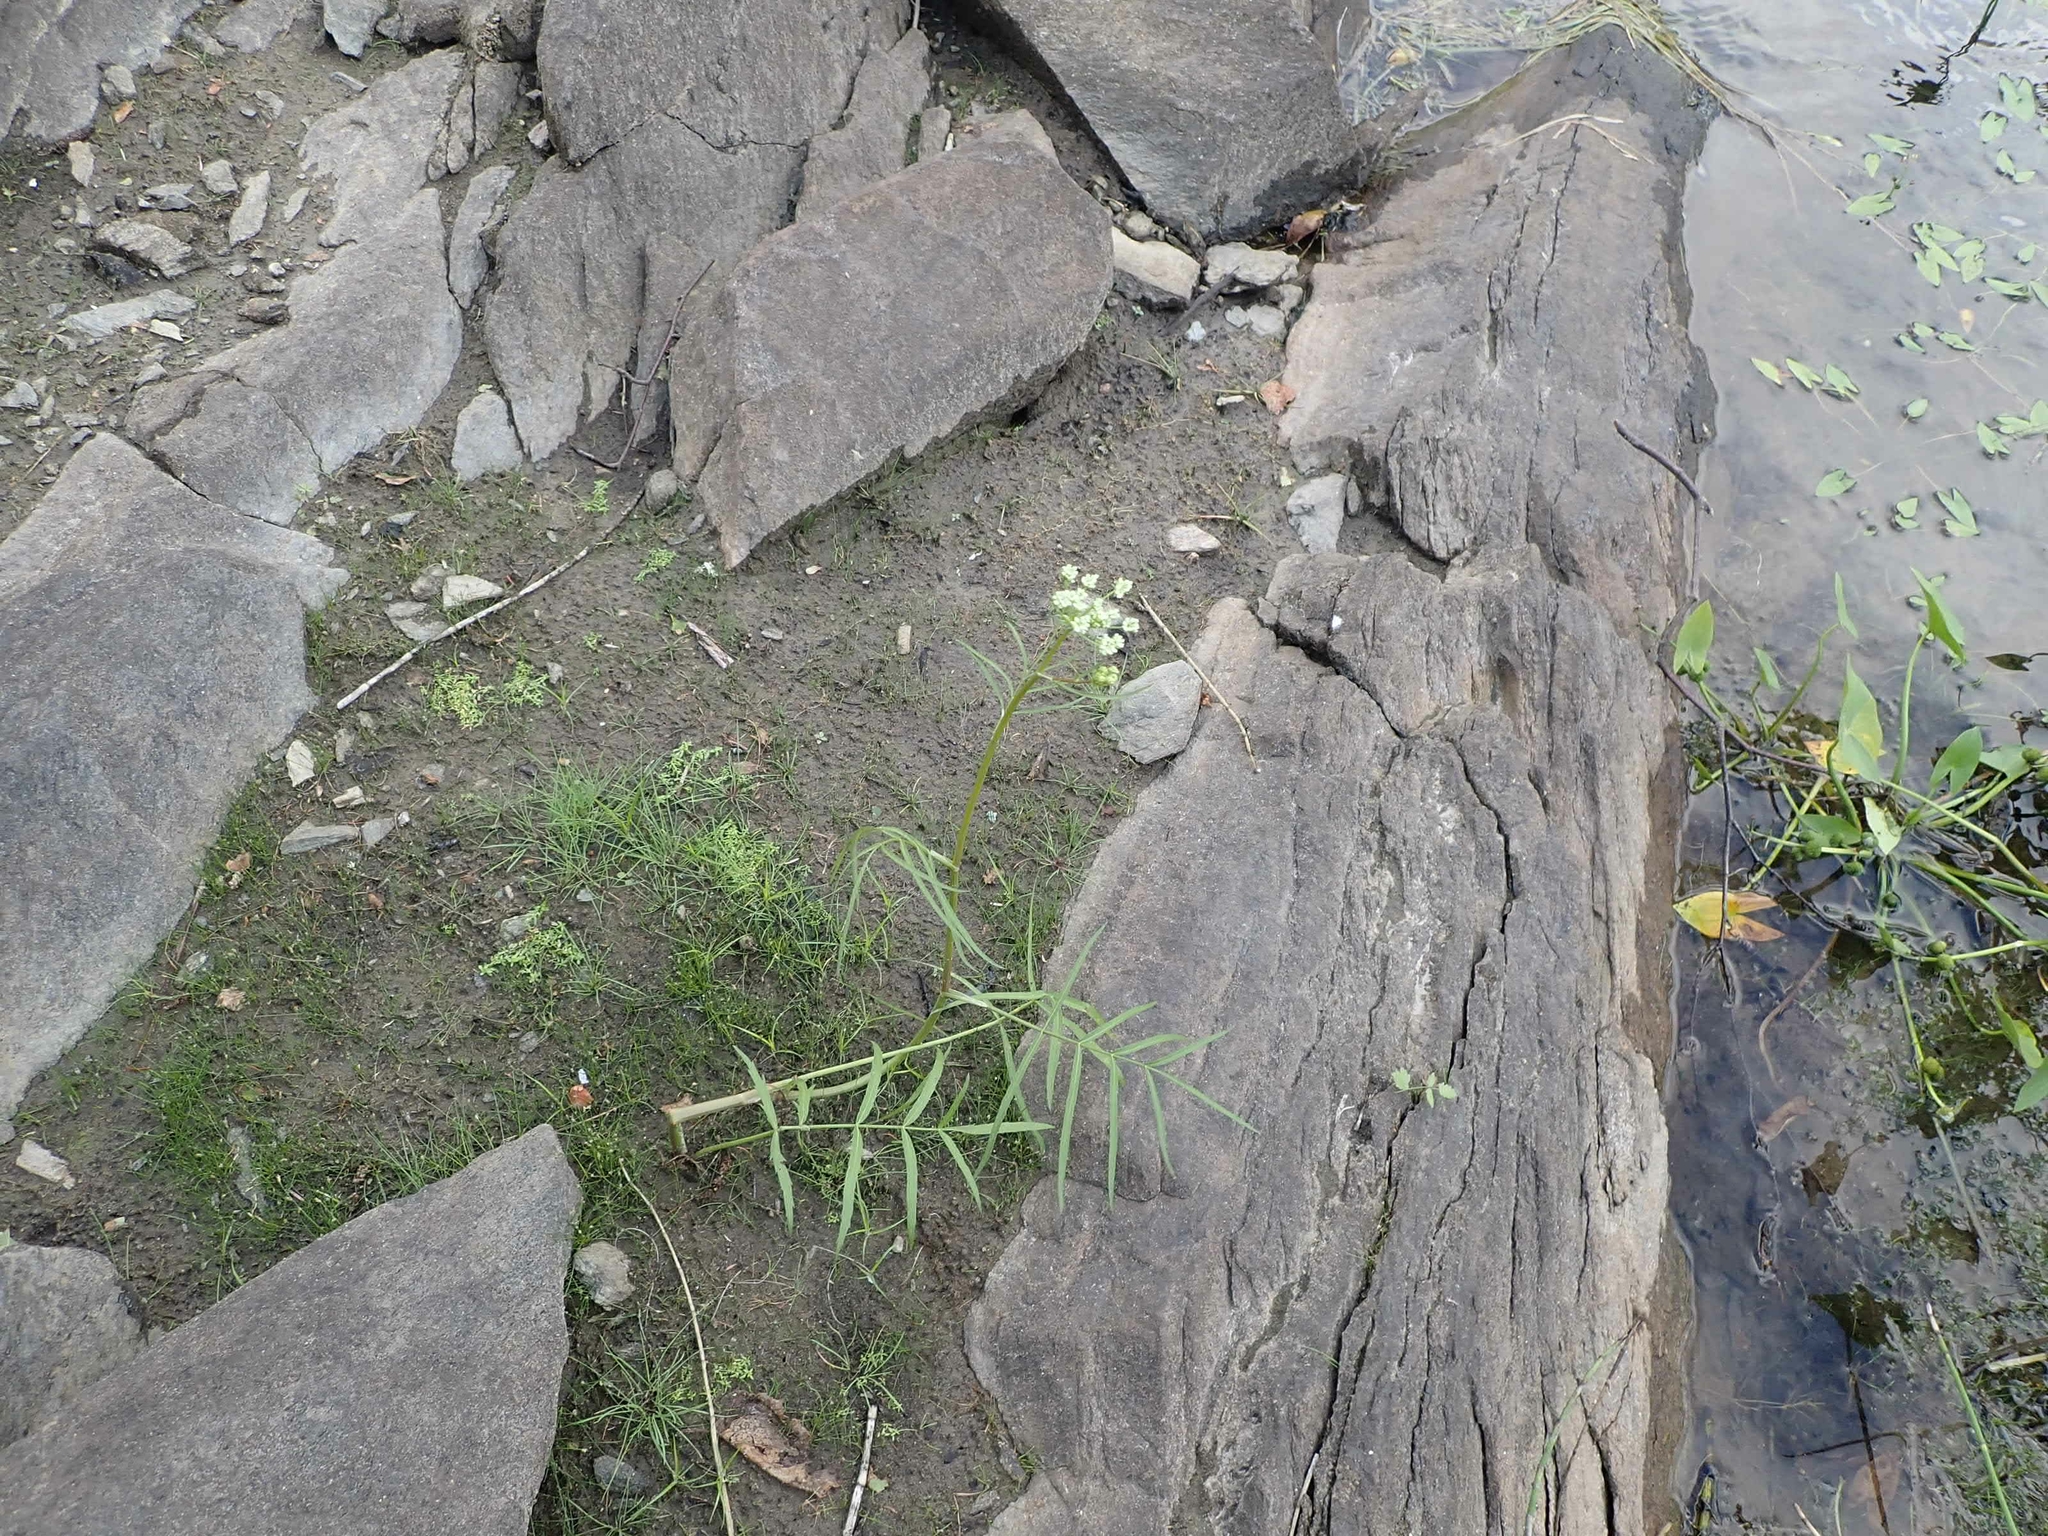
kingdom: Plantae
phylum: Tracheophyta
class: Magnoliopsida
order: Apiales
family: Apiaceae
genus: Sium
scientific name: Sium suave
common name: Hemlock water-parsnip
